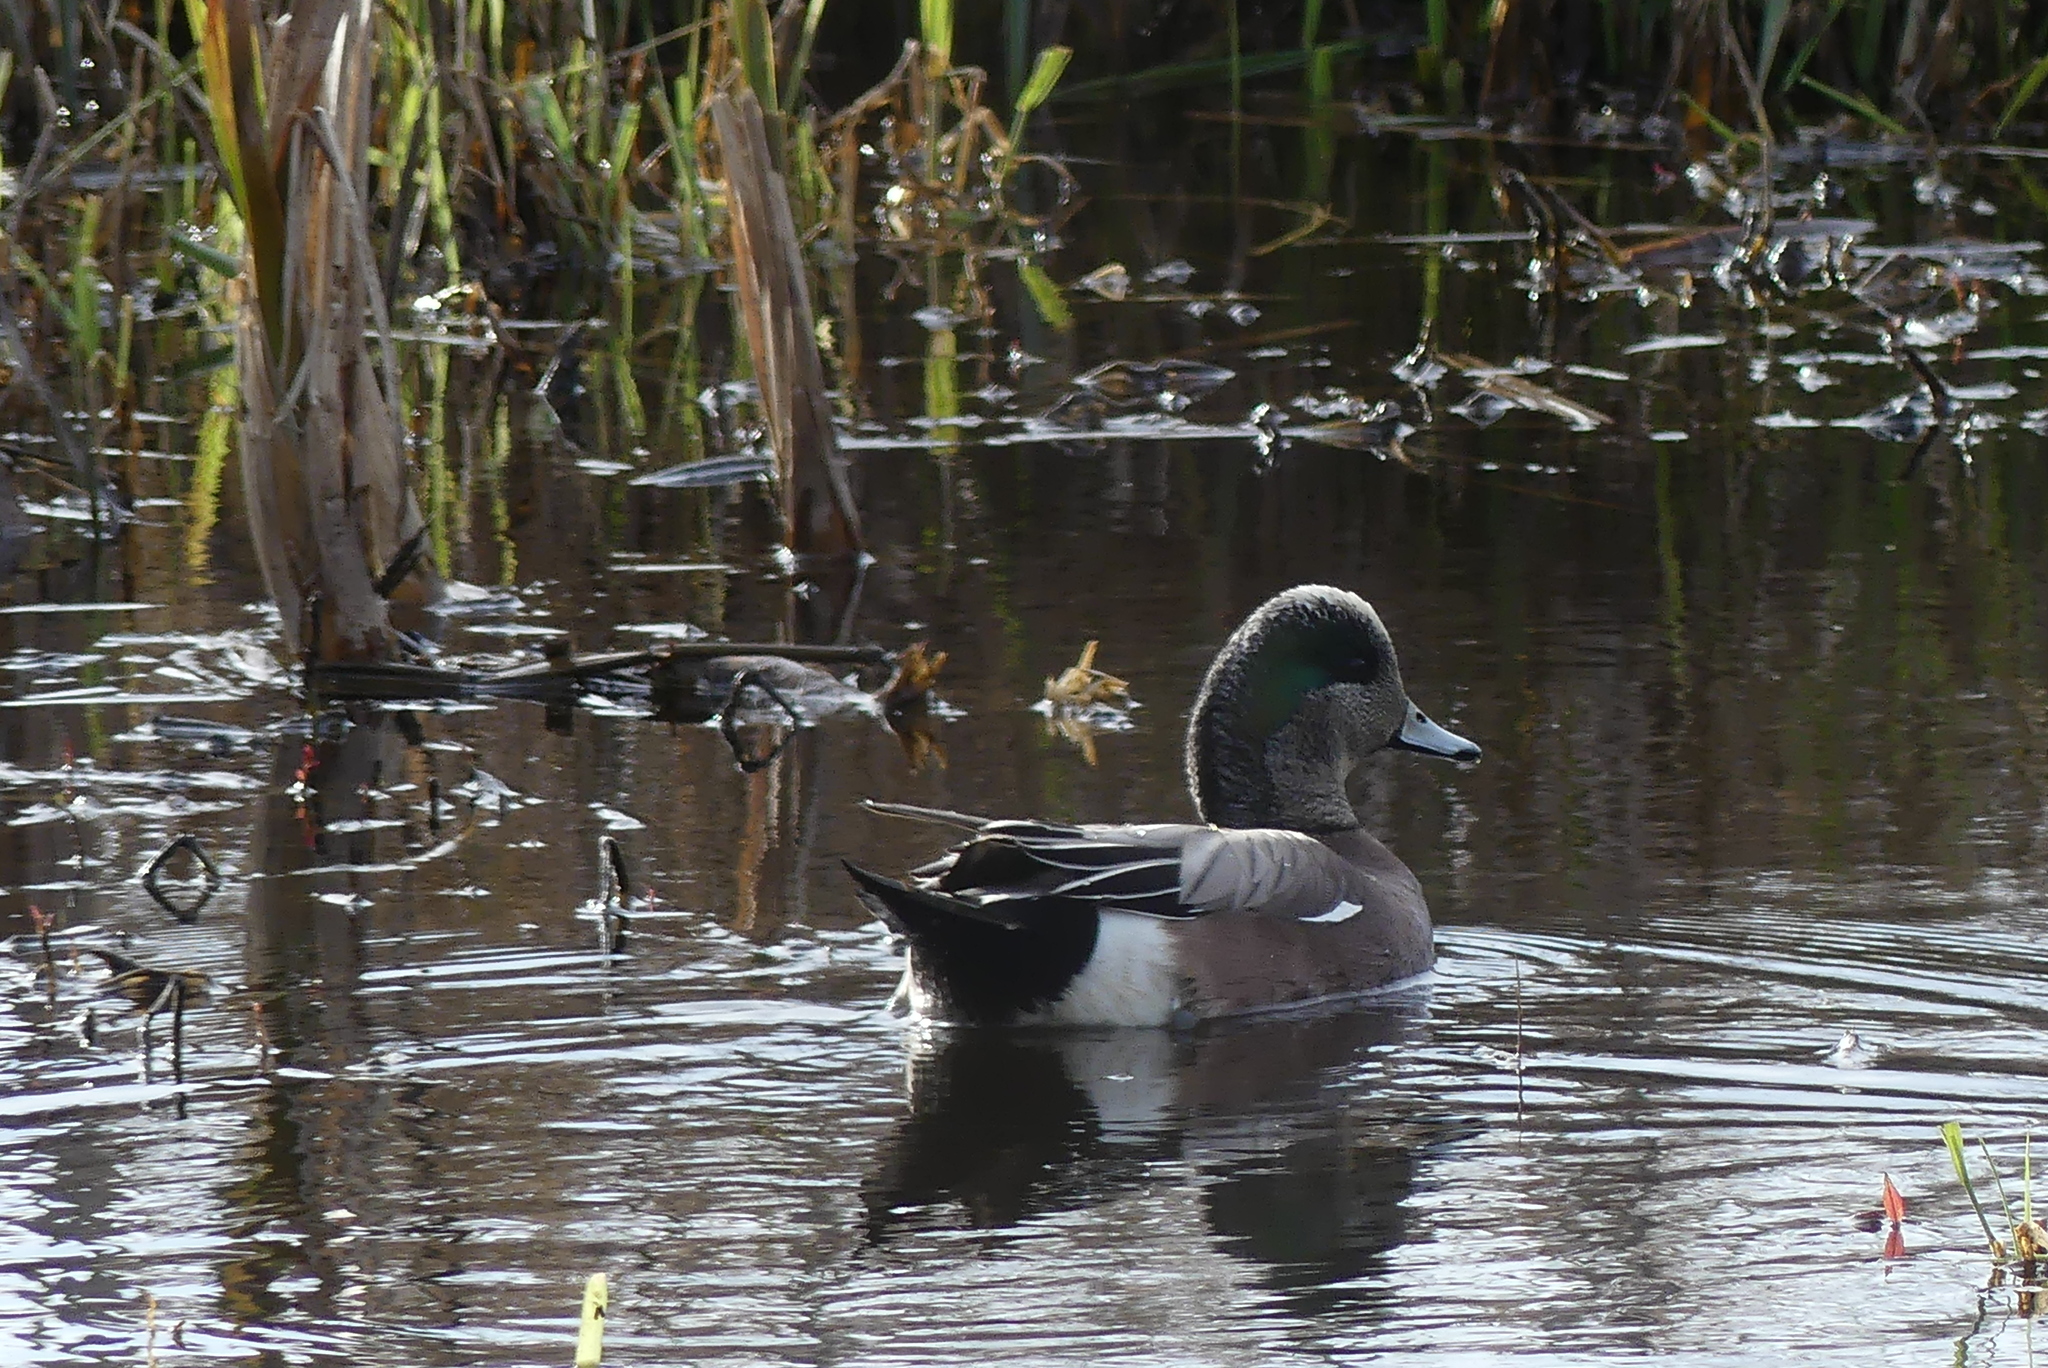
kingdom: Animalia
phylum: Chordata
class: Aves
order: Anseriformes
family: Anatidae
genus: Mareca
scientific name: Mareca americana
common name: American wigeon
